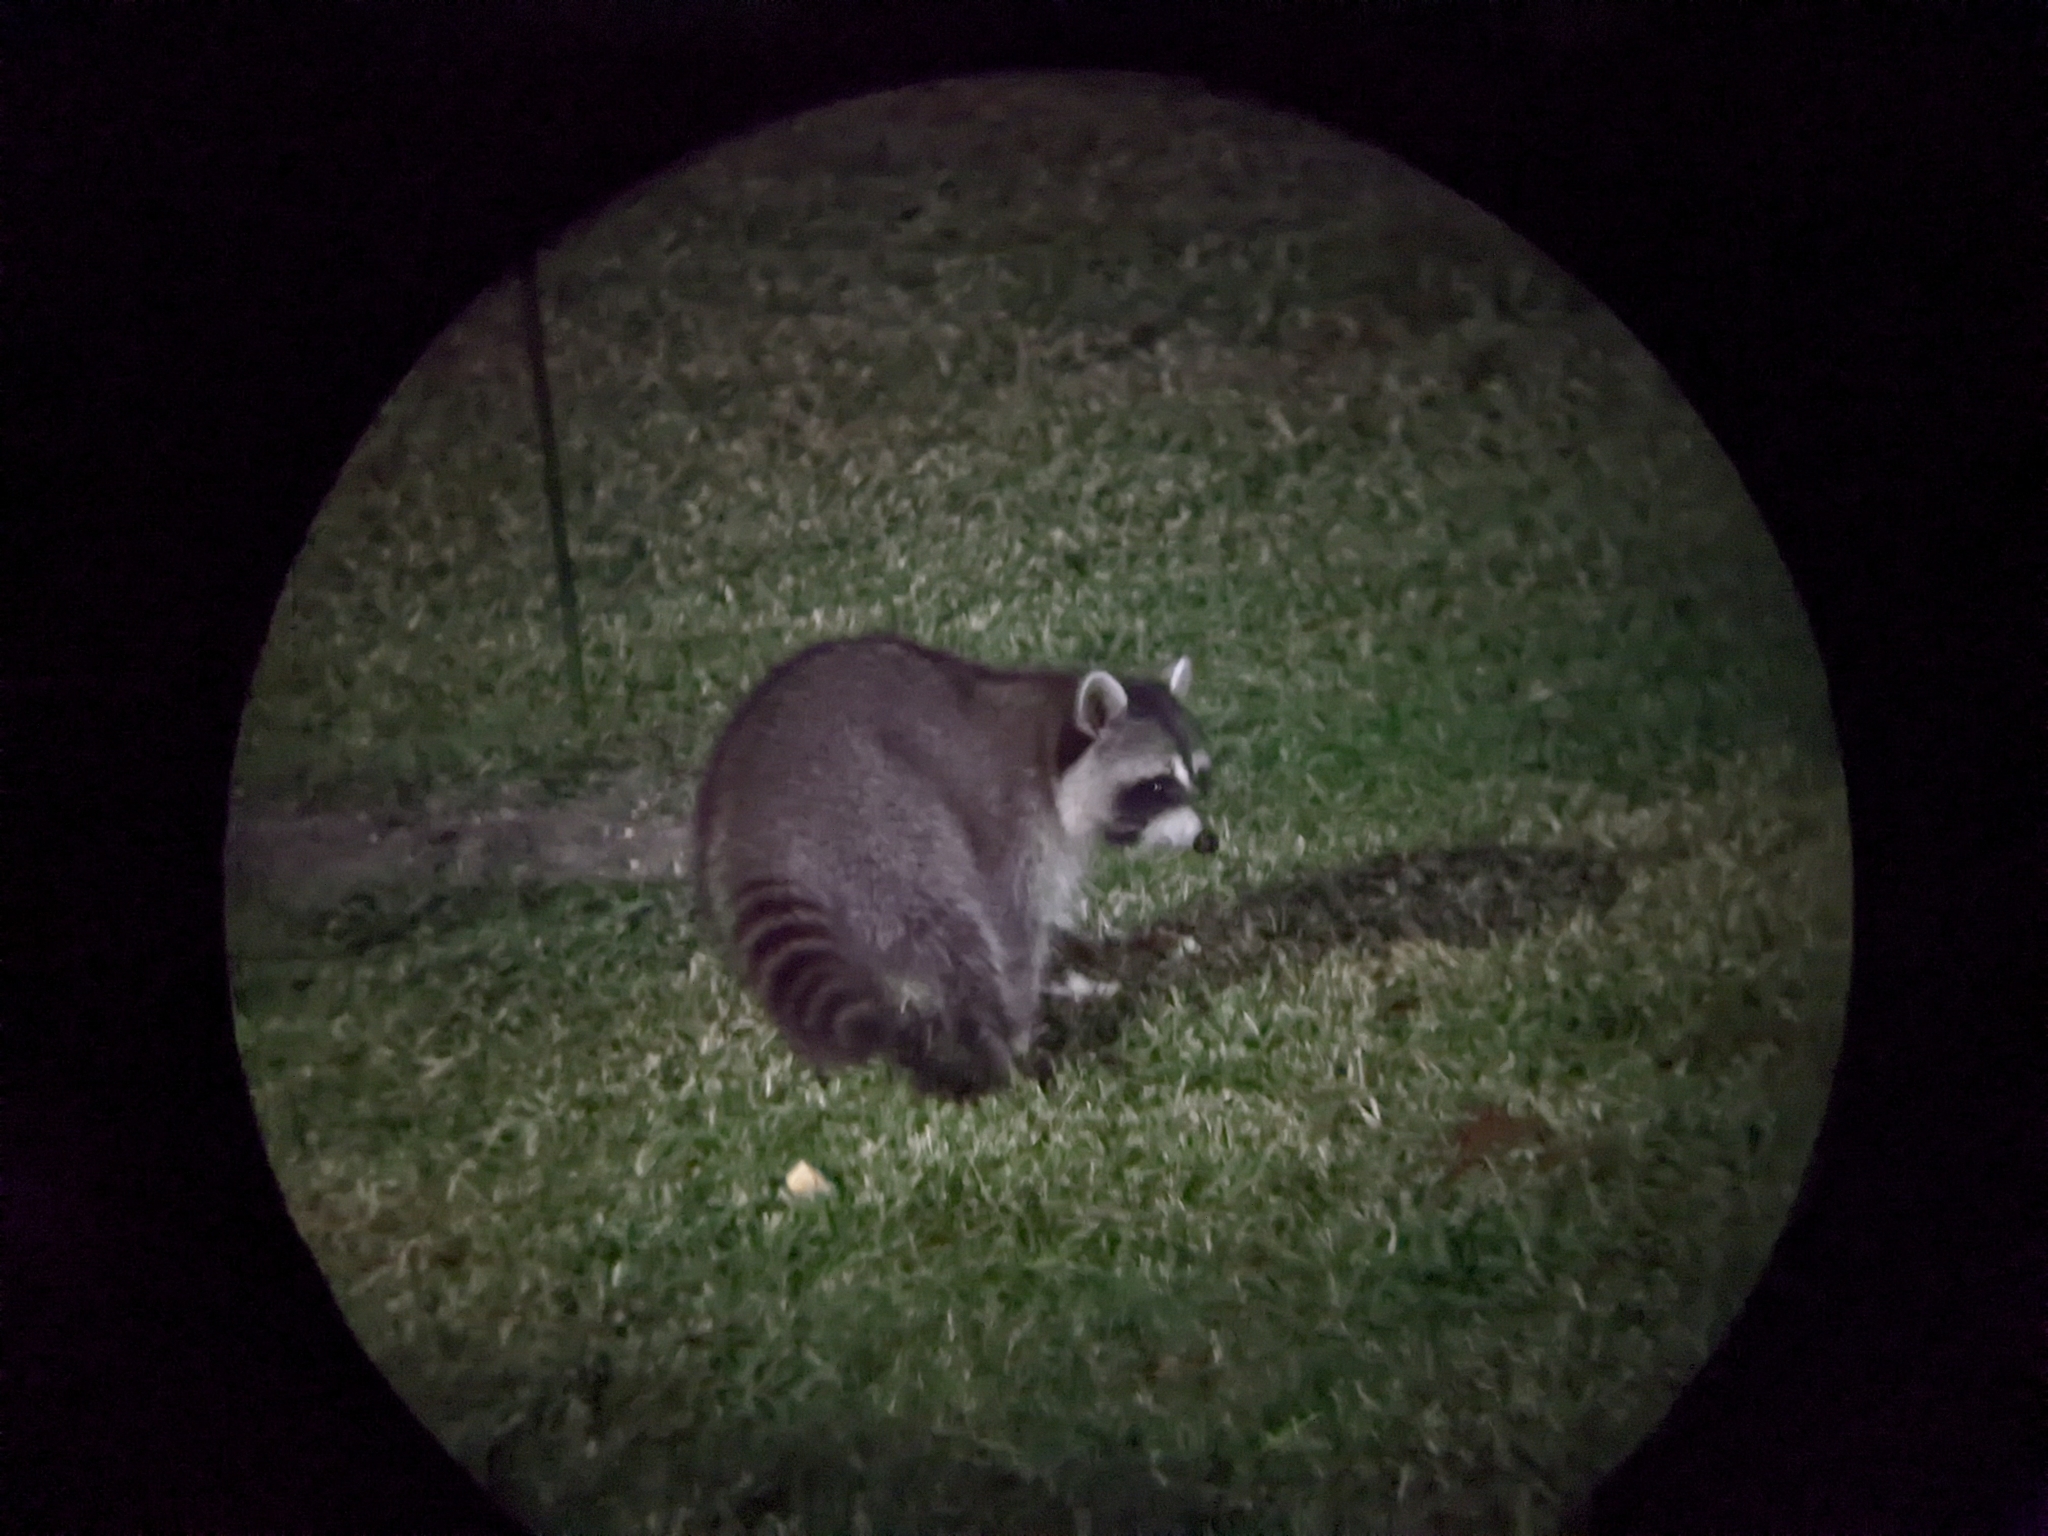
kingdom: Animalia
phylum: Chordata
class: Mammalia
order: Carnivora
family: Procyonidae
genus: Procyon
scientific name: Procyon lotor
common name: Raccoon
